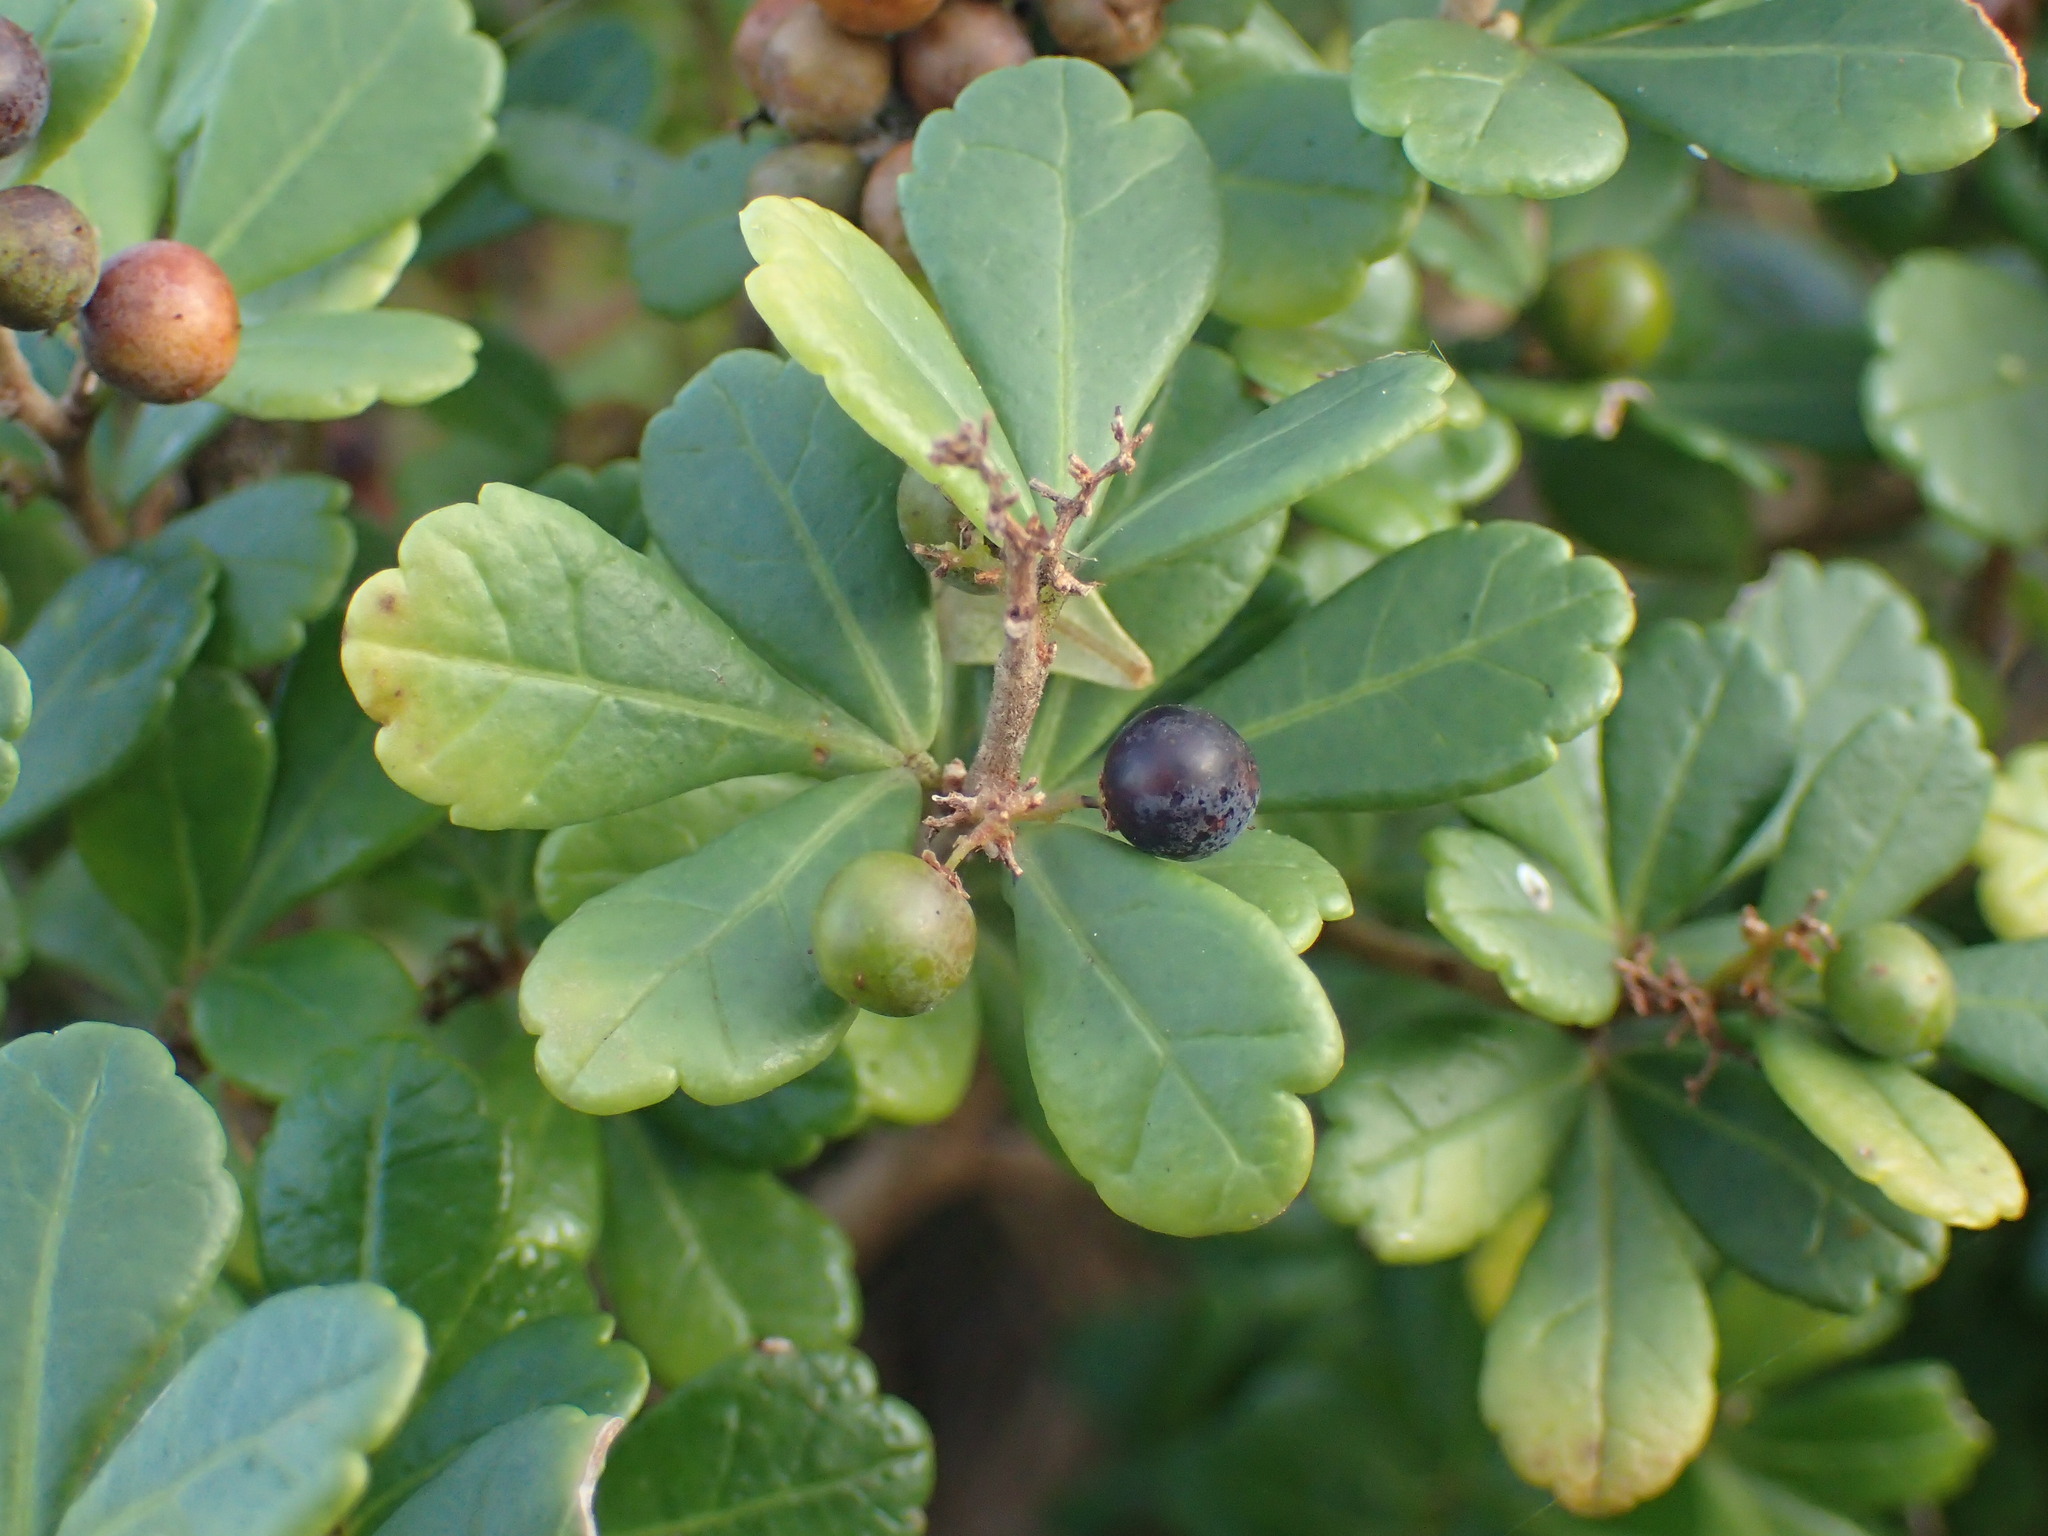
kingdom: Plantae
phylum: Tracheophyta
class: Magnoliopsida
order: Sapindales
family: Anacardiaceae
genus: Searsia
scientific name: Searsia crenata
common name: Crowberry
